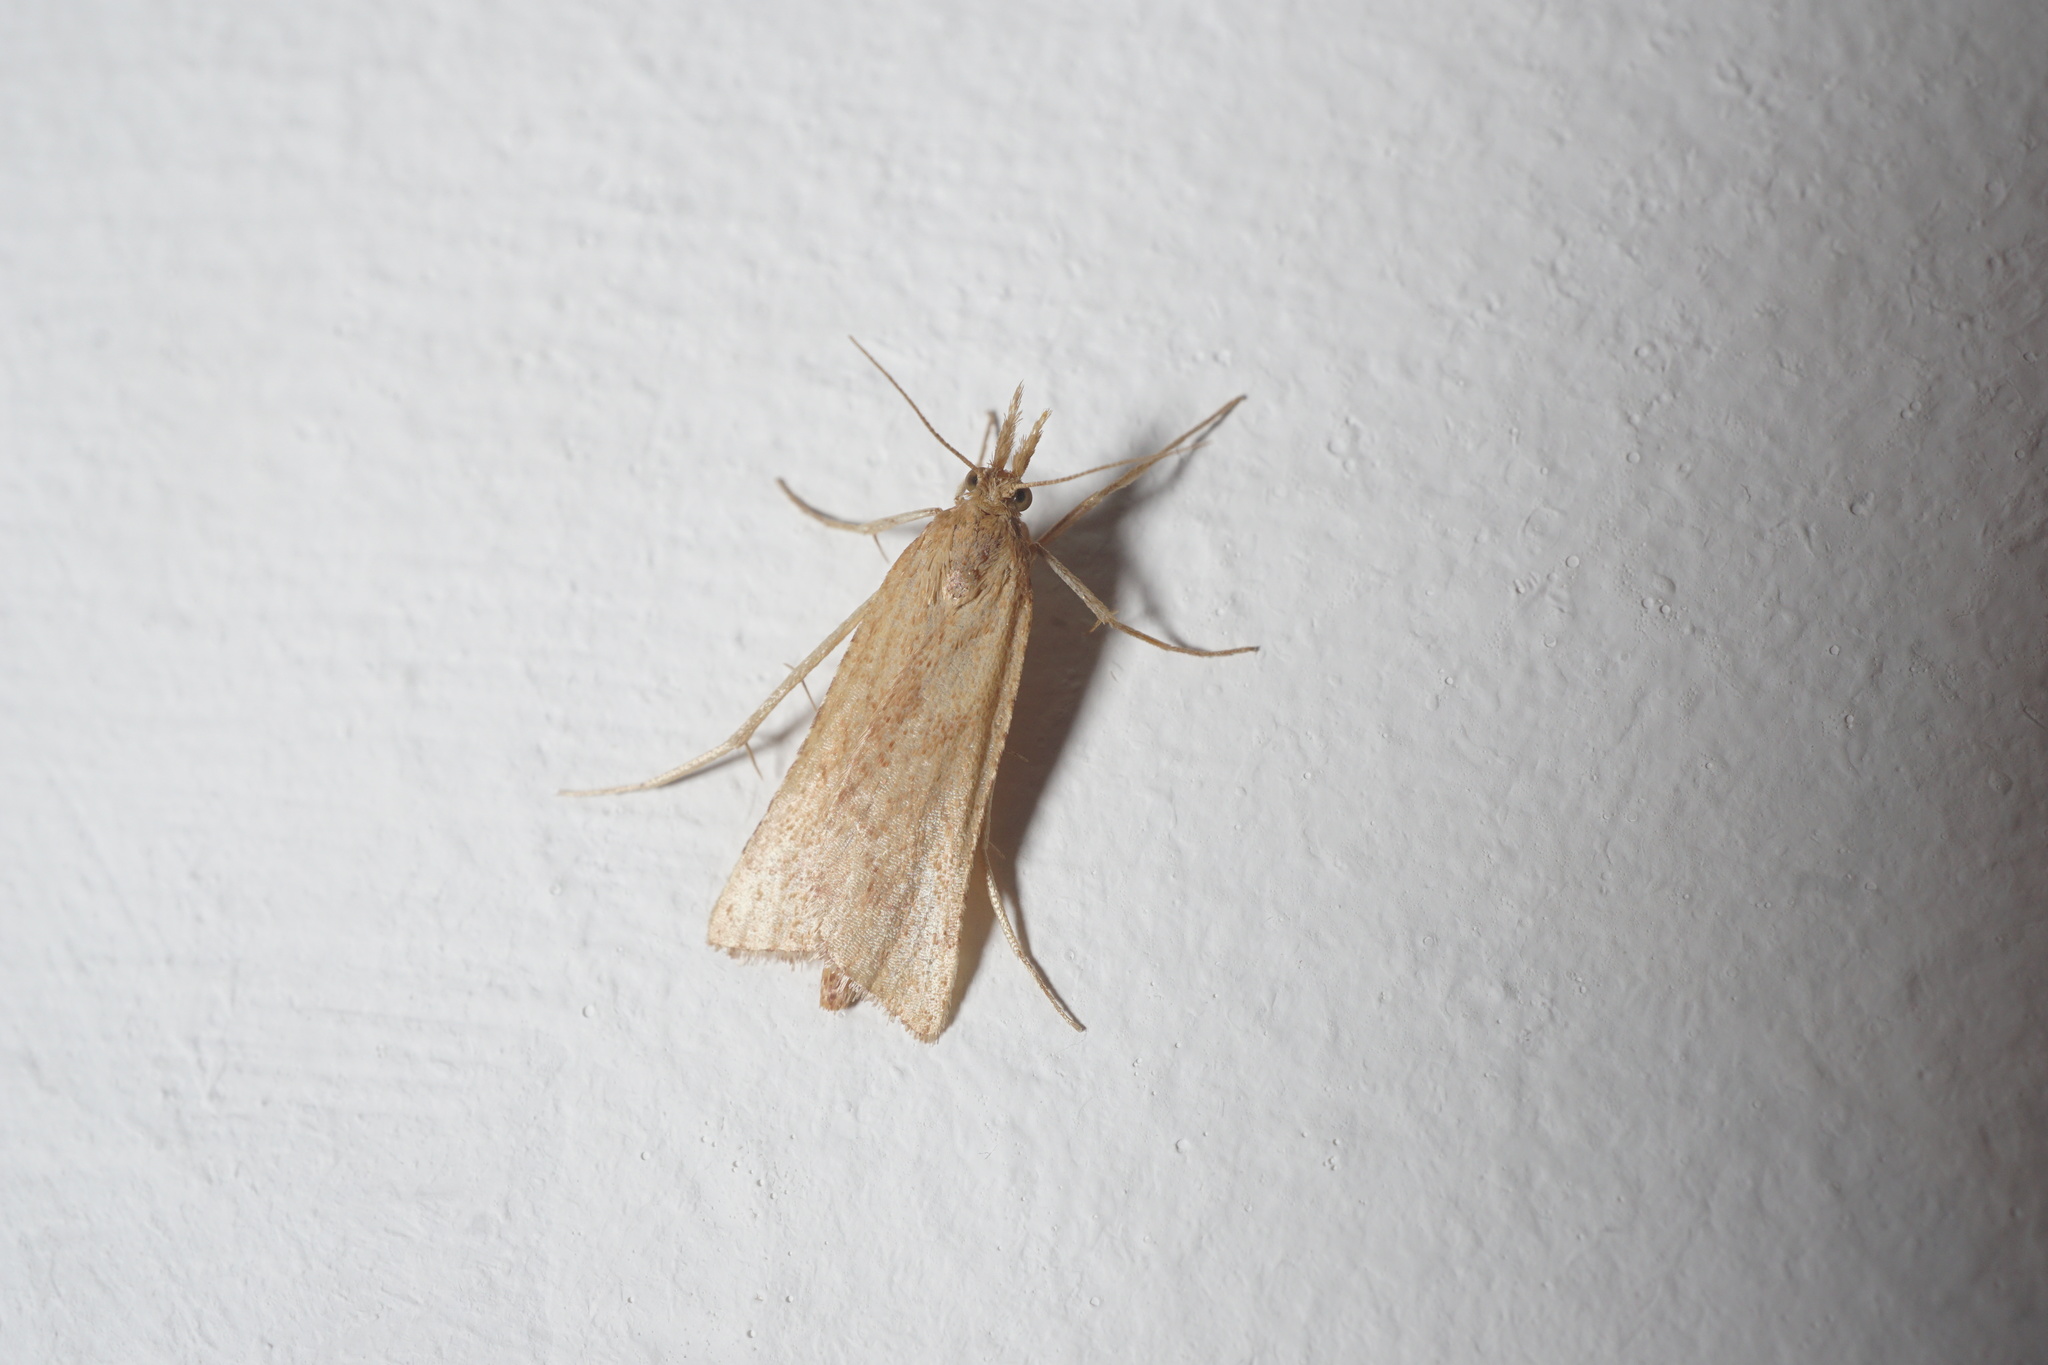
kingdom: Animalia
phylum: Arthropoda
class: Insecta
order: Lepidoptera
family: Pyralidae
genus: Synaphe
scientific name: Synaphe punctalis
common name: Long-legged tabby
